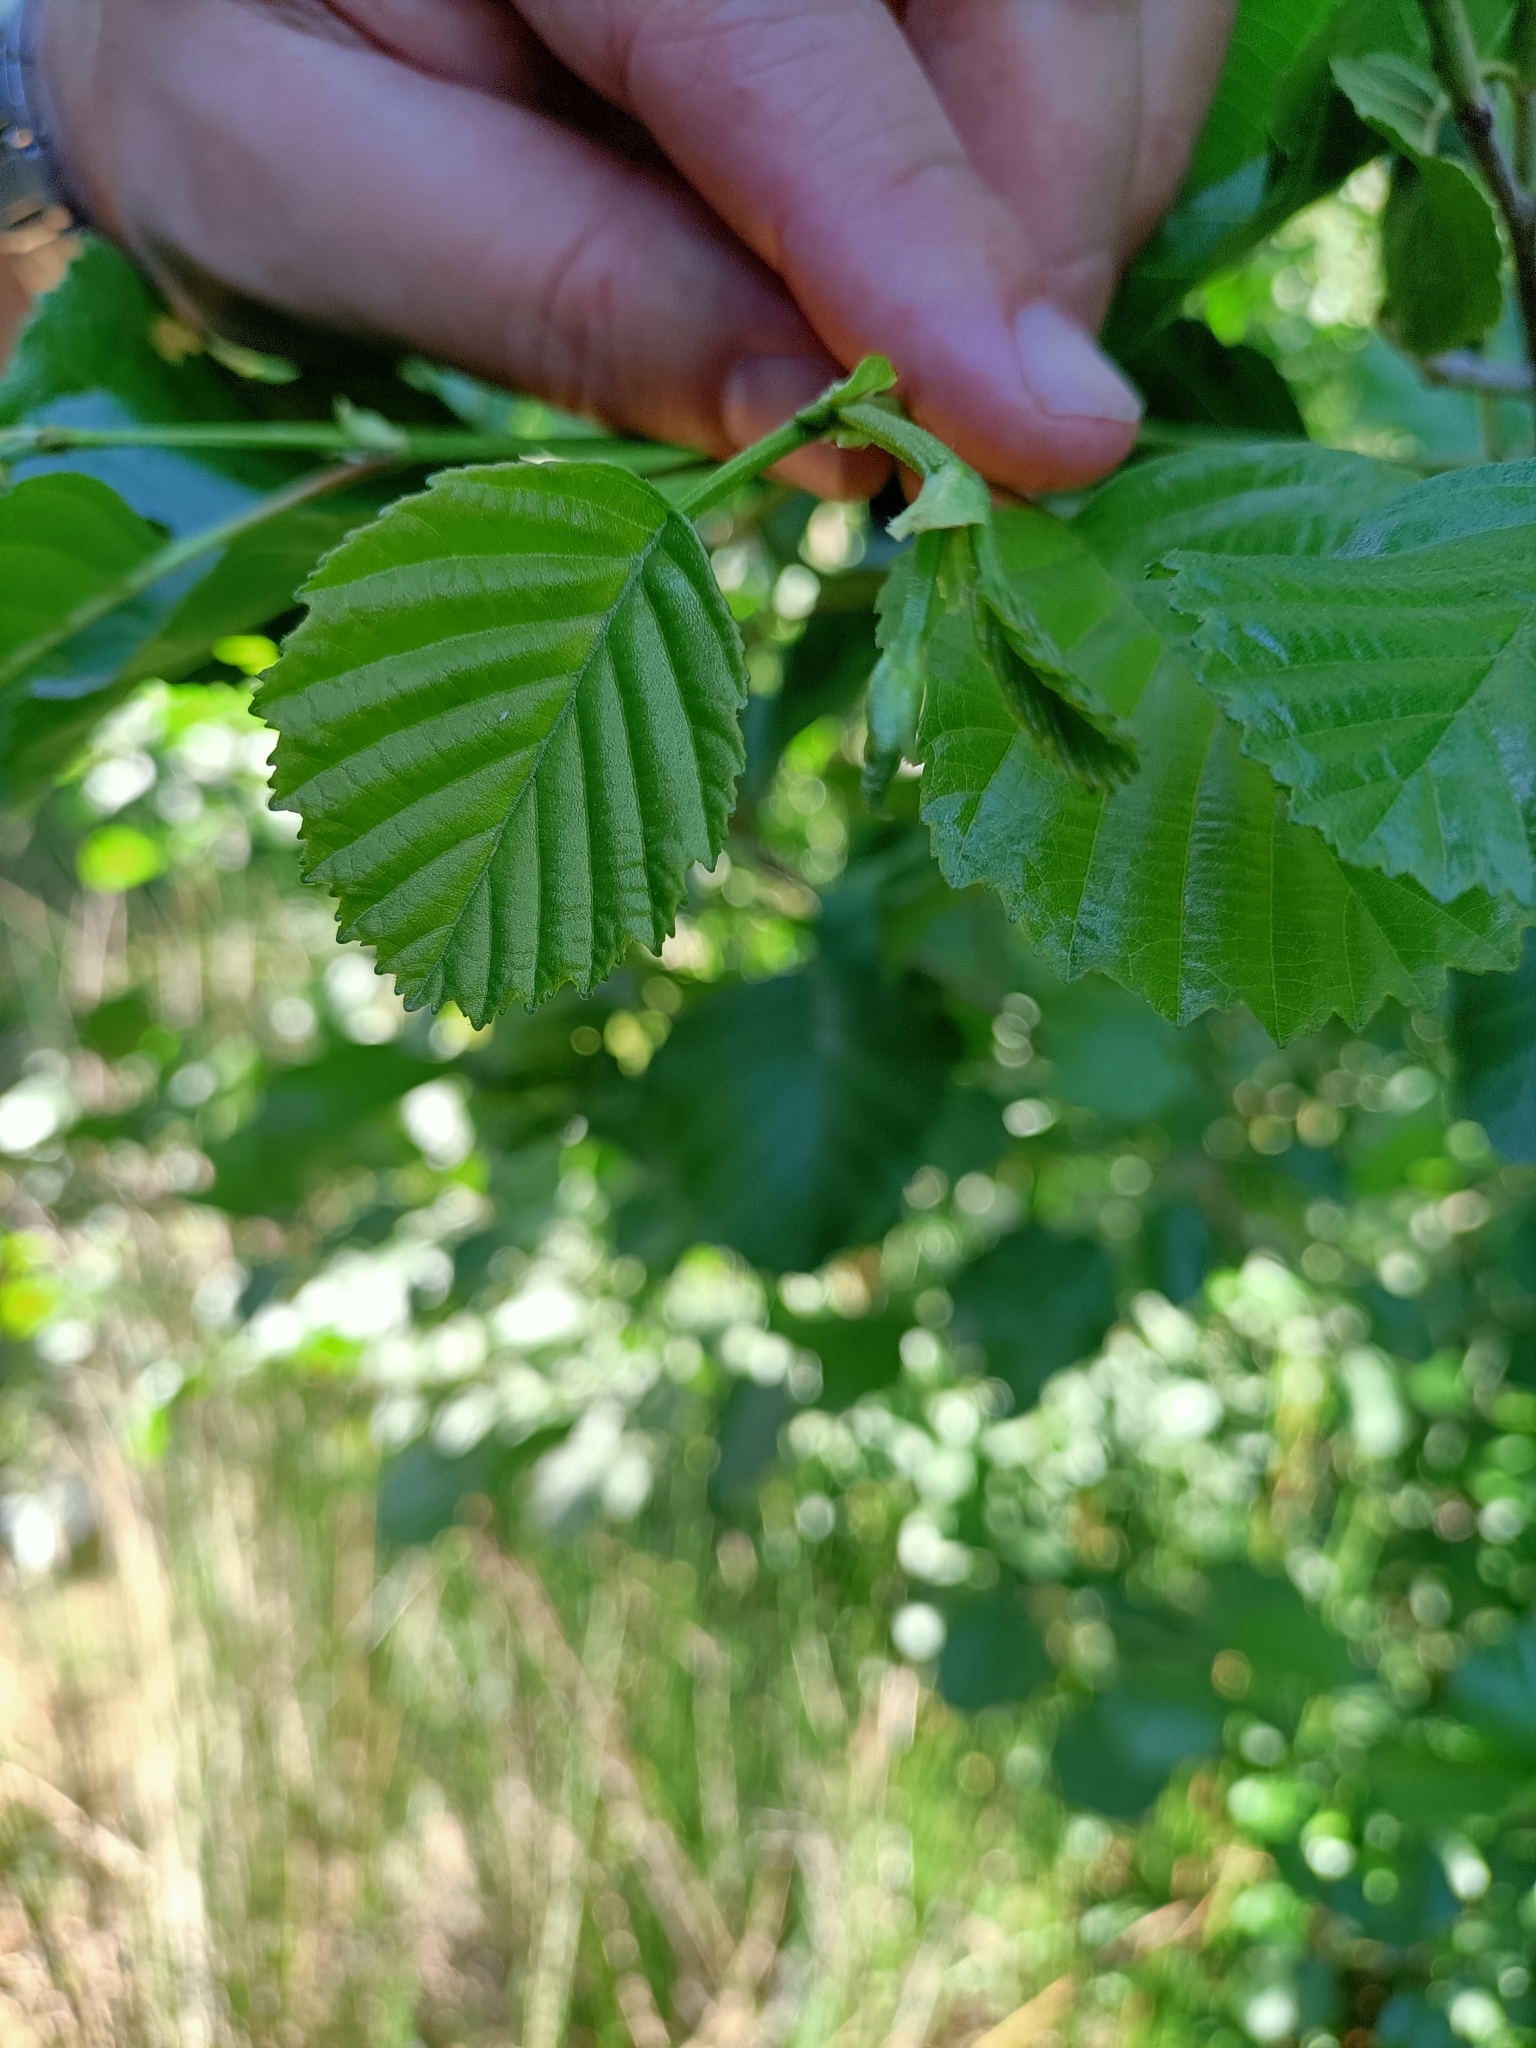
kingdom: Plantae
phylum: Tracheophyta
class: Magnoliopsida
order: Fagales
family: Betulaceae
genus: Alnus
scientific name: Alnus lusitanica
